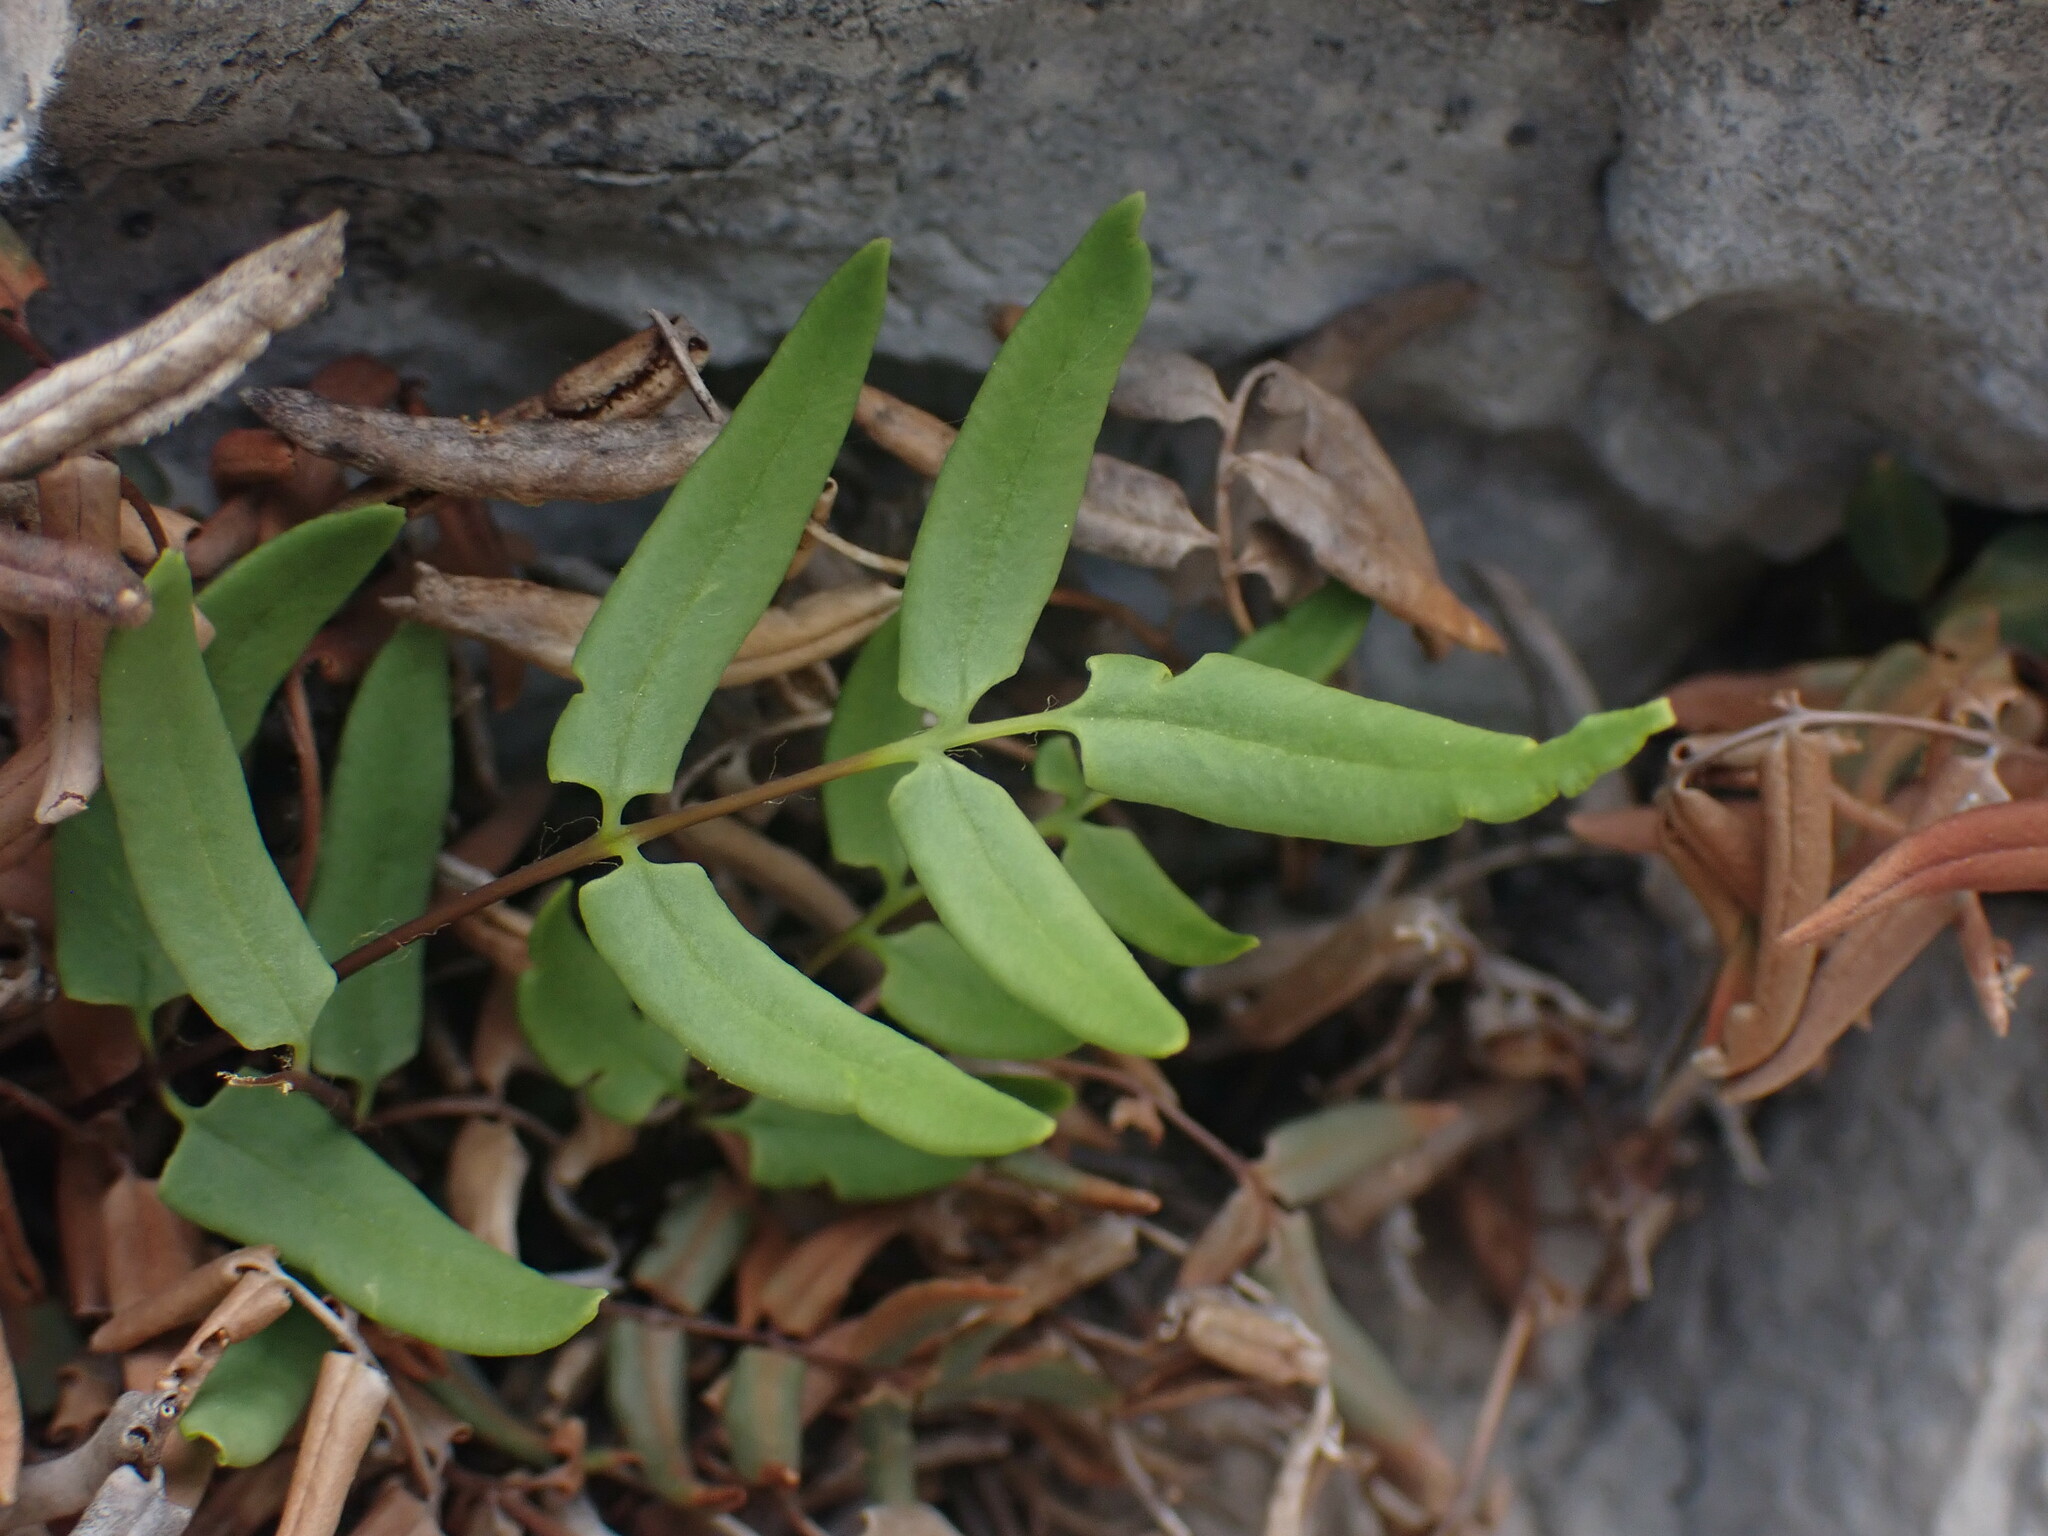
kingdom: Plantae
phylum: Tracheophyta
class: Polypodiopsida
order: Polypodiales
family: Pteridaceae
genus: Pellaea
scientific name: Pellaea glabella
